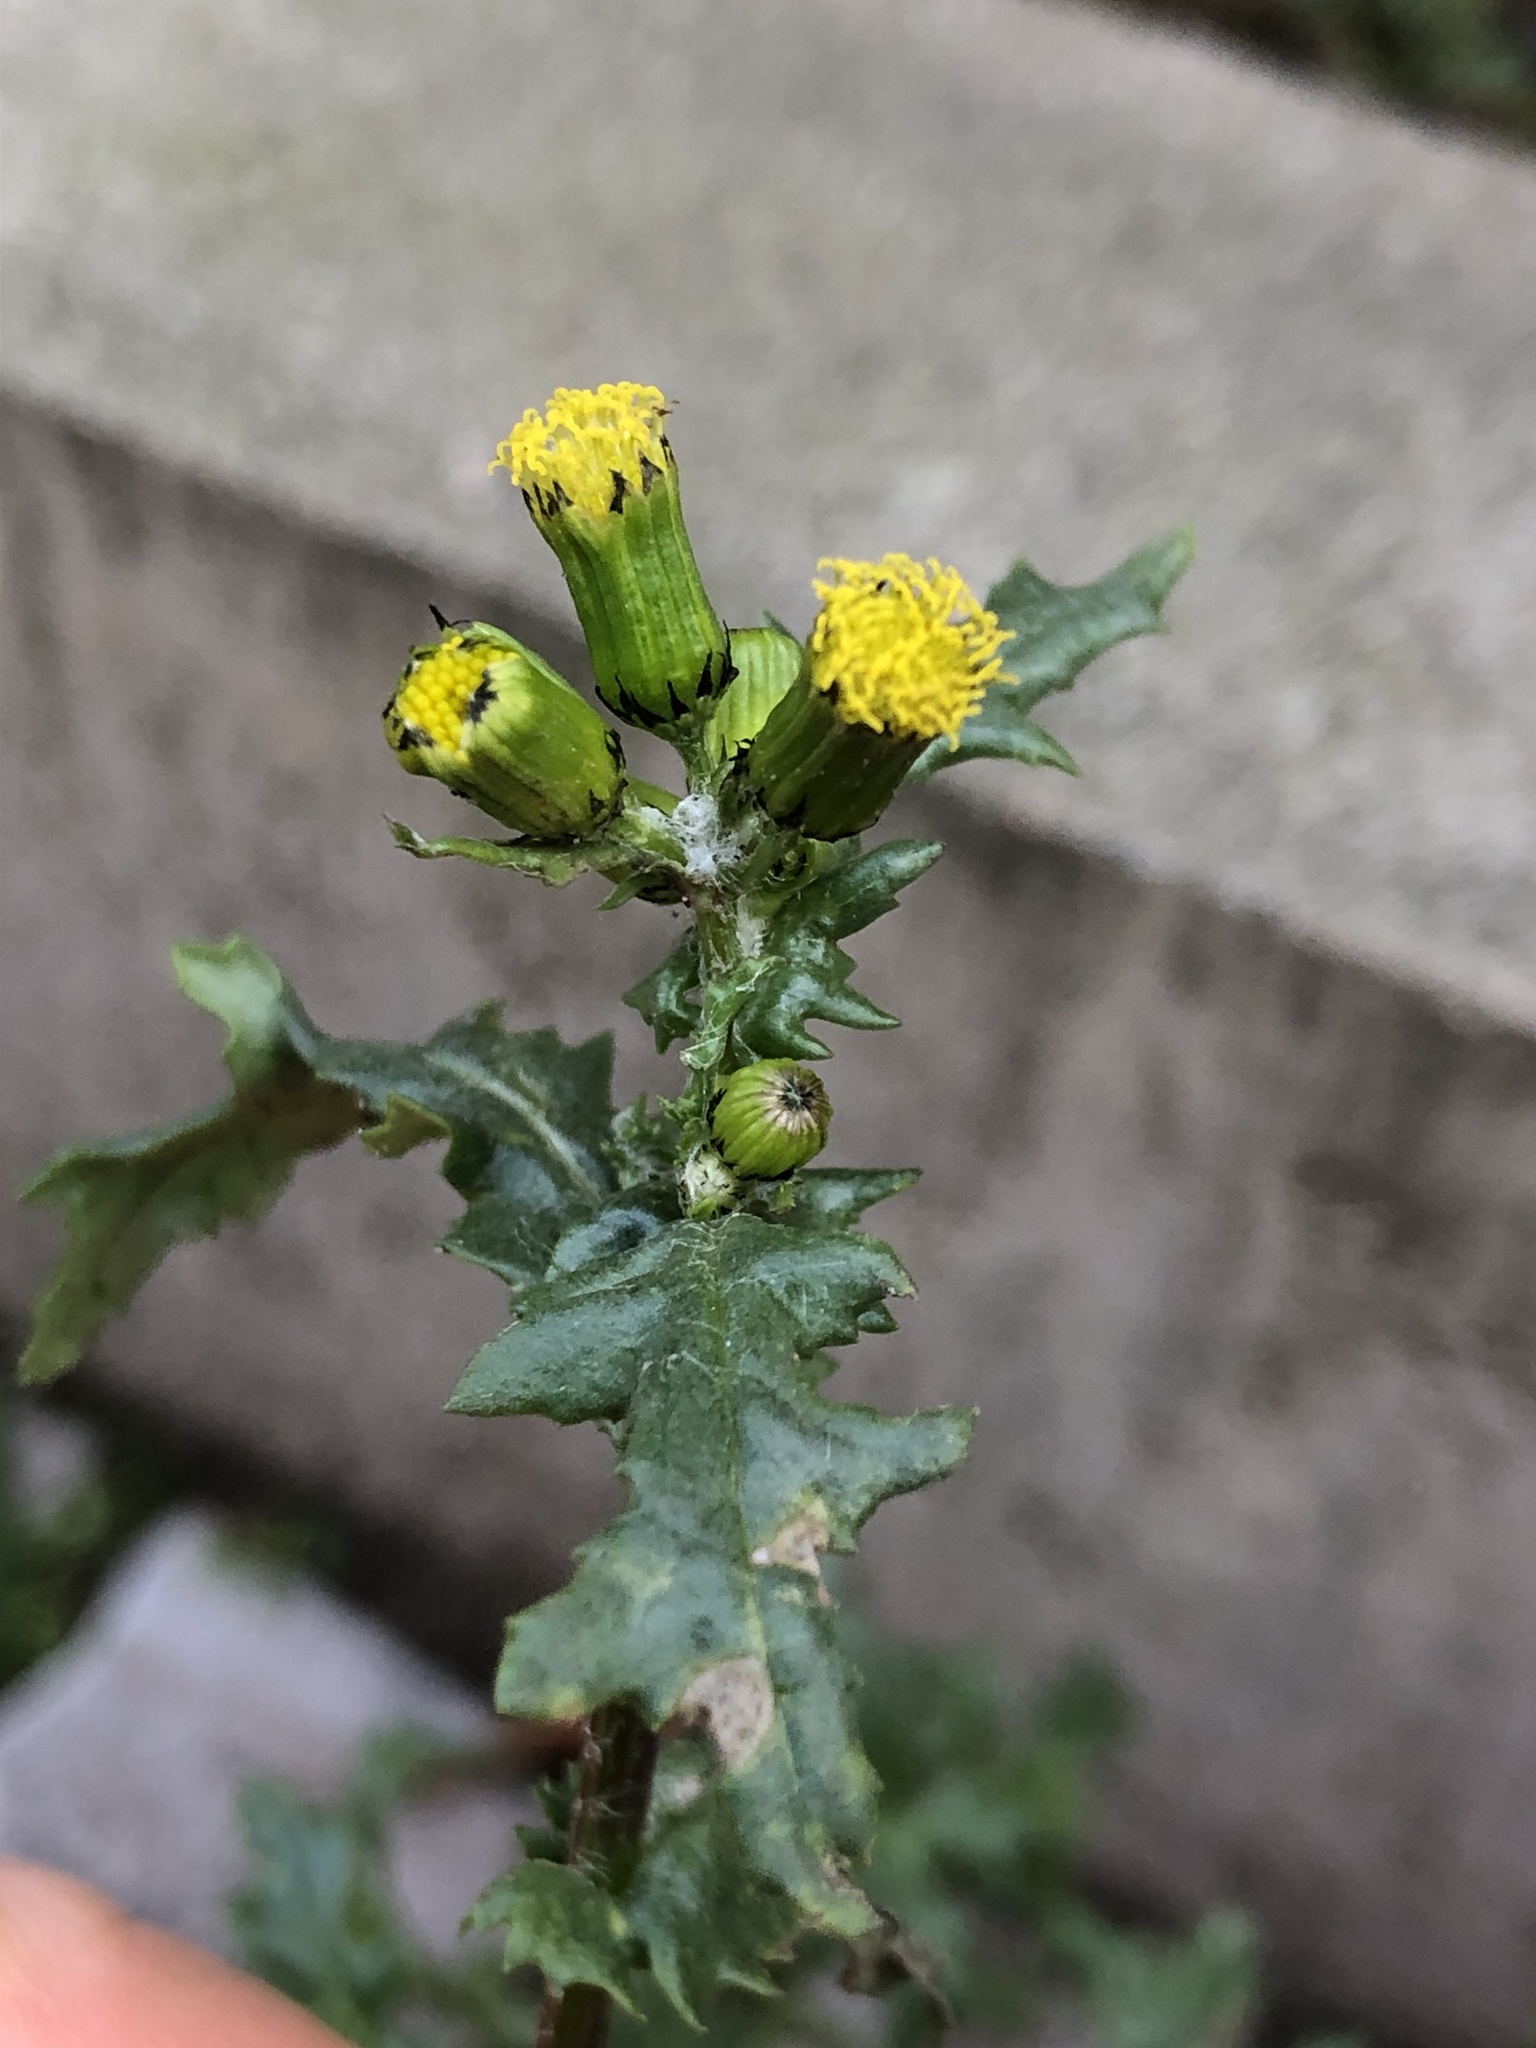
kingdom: Plantae
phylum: Tracheophyta
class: Magnoliopsida
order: Asterales
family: Asteraceae
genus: Senecio
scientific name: Senecio vulgaris
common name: Old-man-in-the-spring
